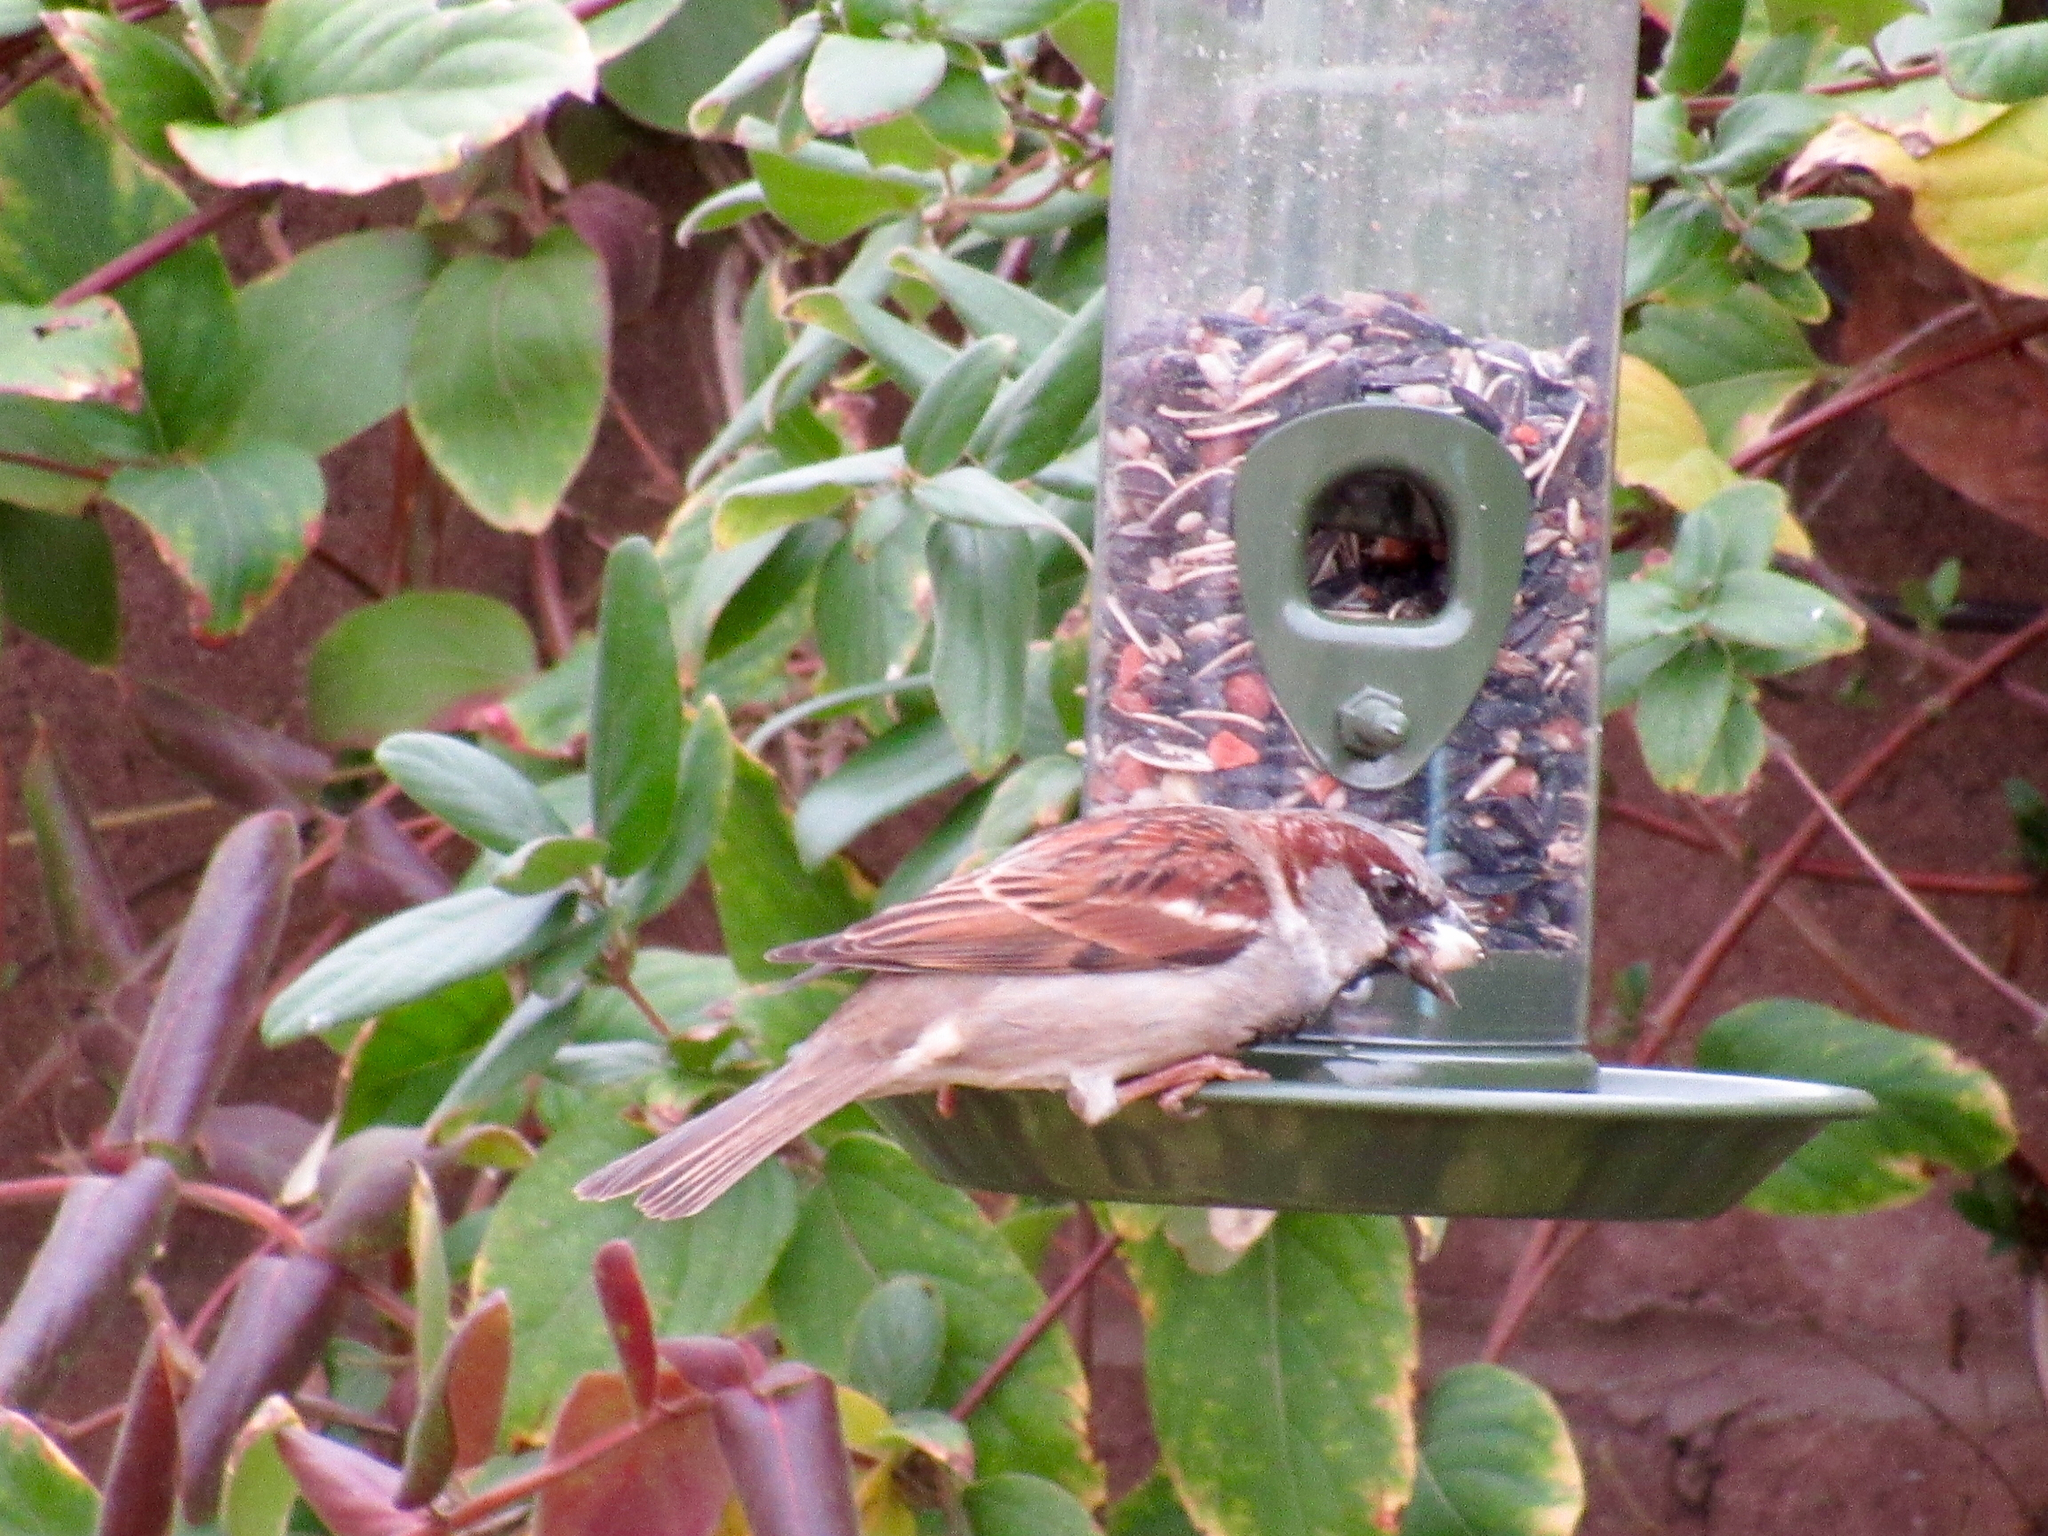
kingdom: Animalia
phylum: Chordata
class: Aves
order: Passeriformes
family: Passeridae
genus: Passer
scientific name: Passer domesticus
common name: House sparrow
